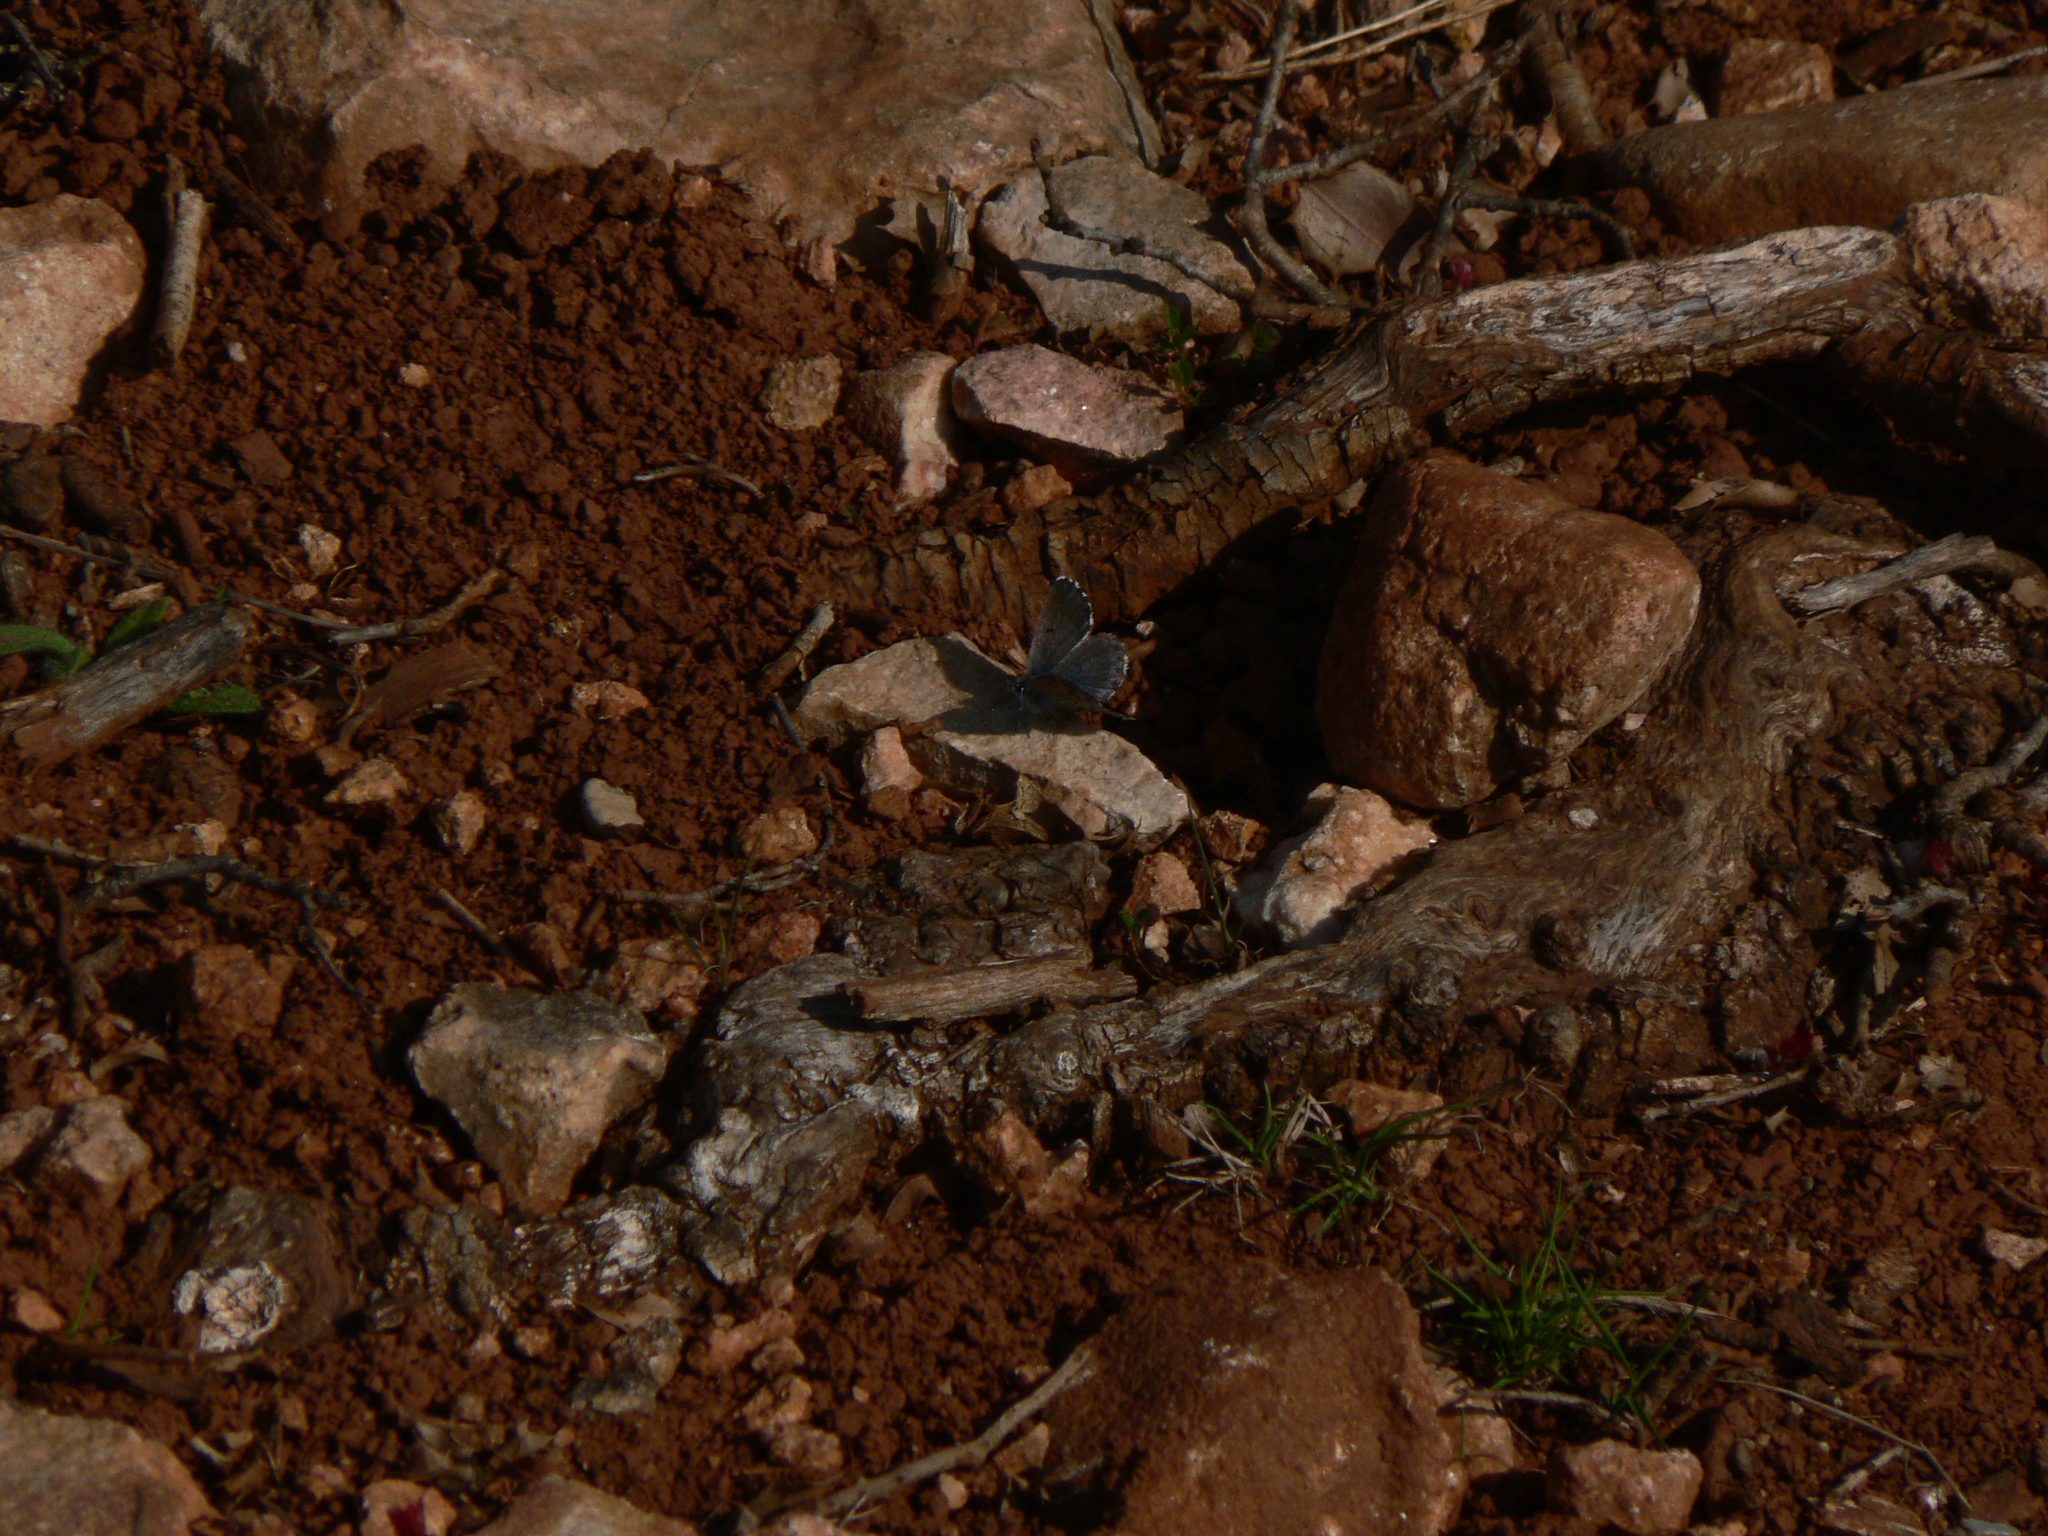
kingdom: Animalia
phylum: Arthropoda
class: Insecta
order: Lepidoptera
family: Lycaenidae
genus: Pseudophilotes
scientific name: Pseudophilotes baton
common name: Baton blue
